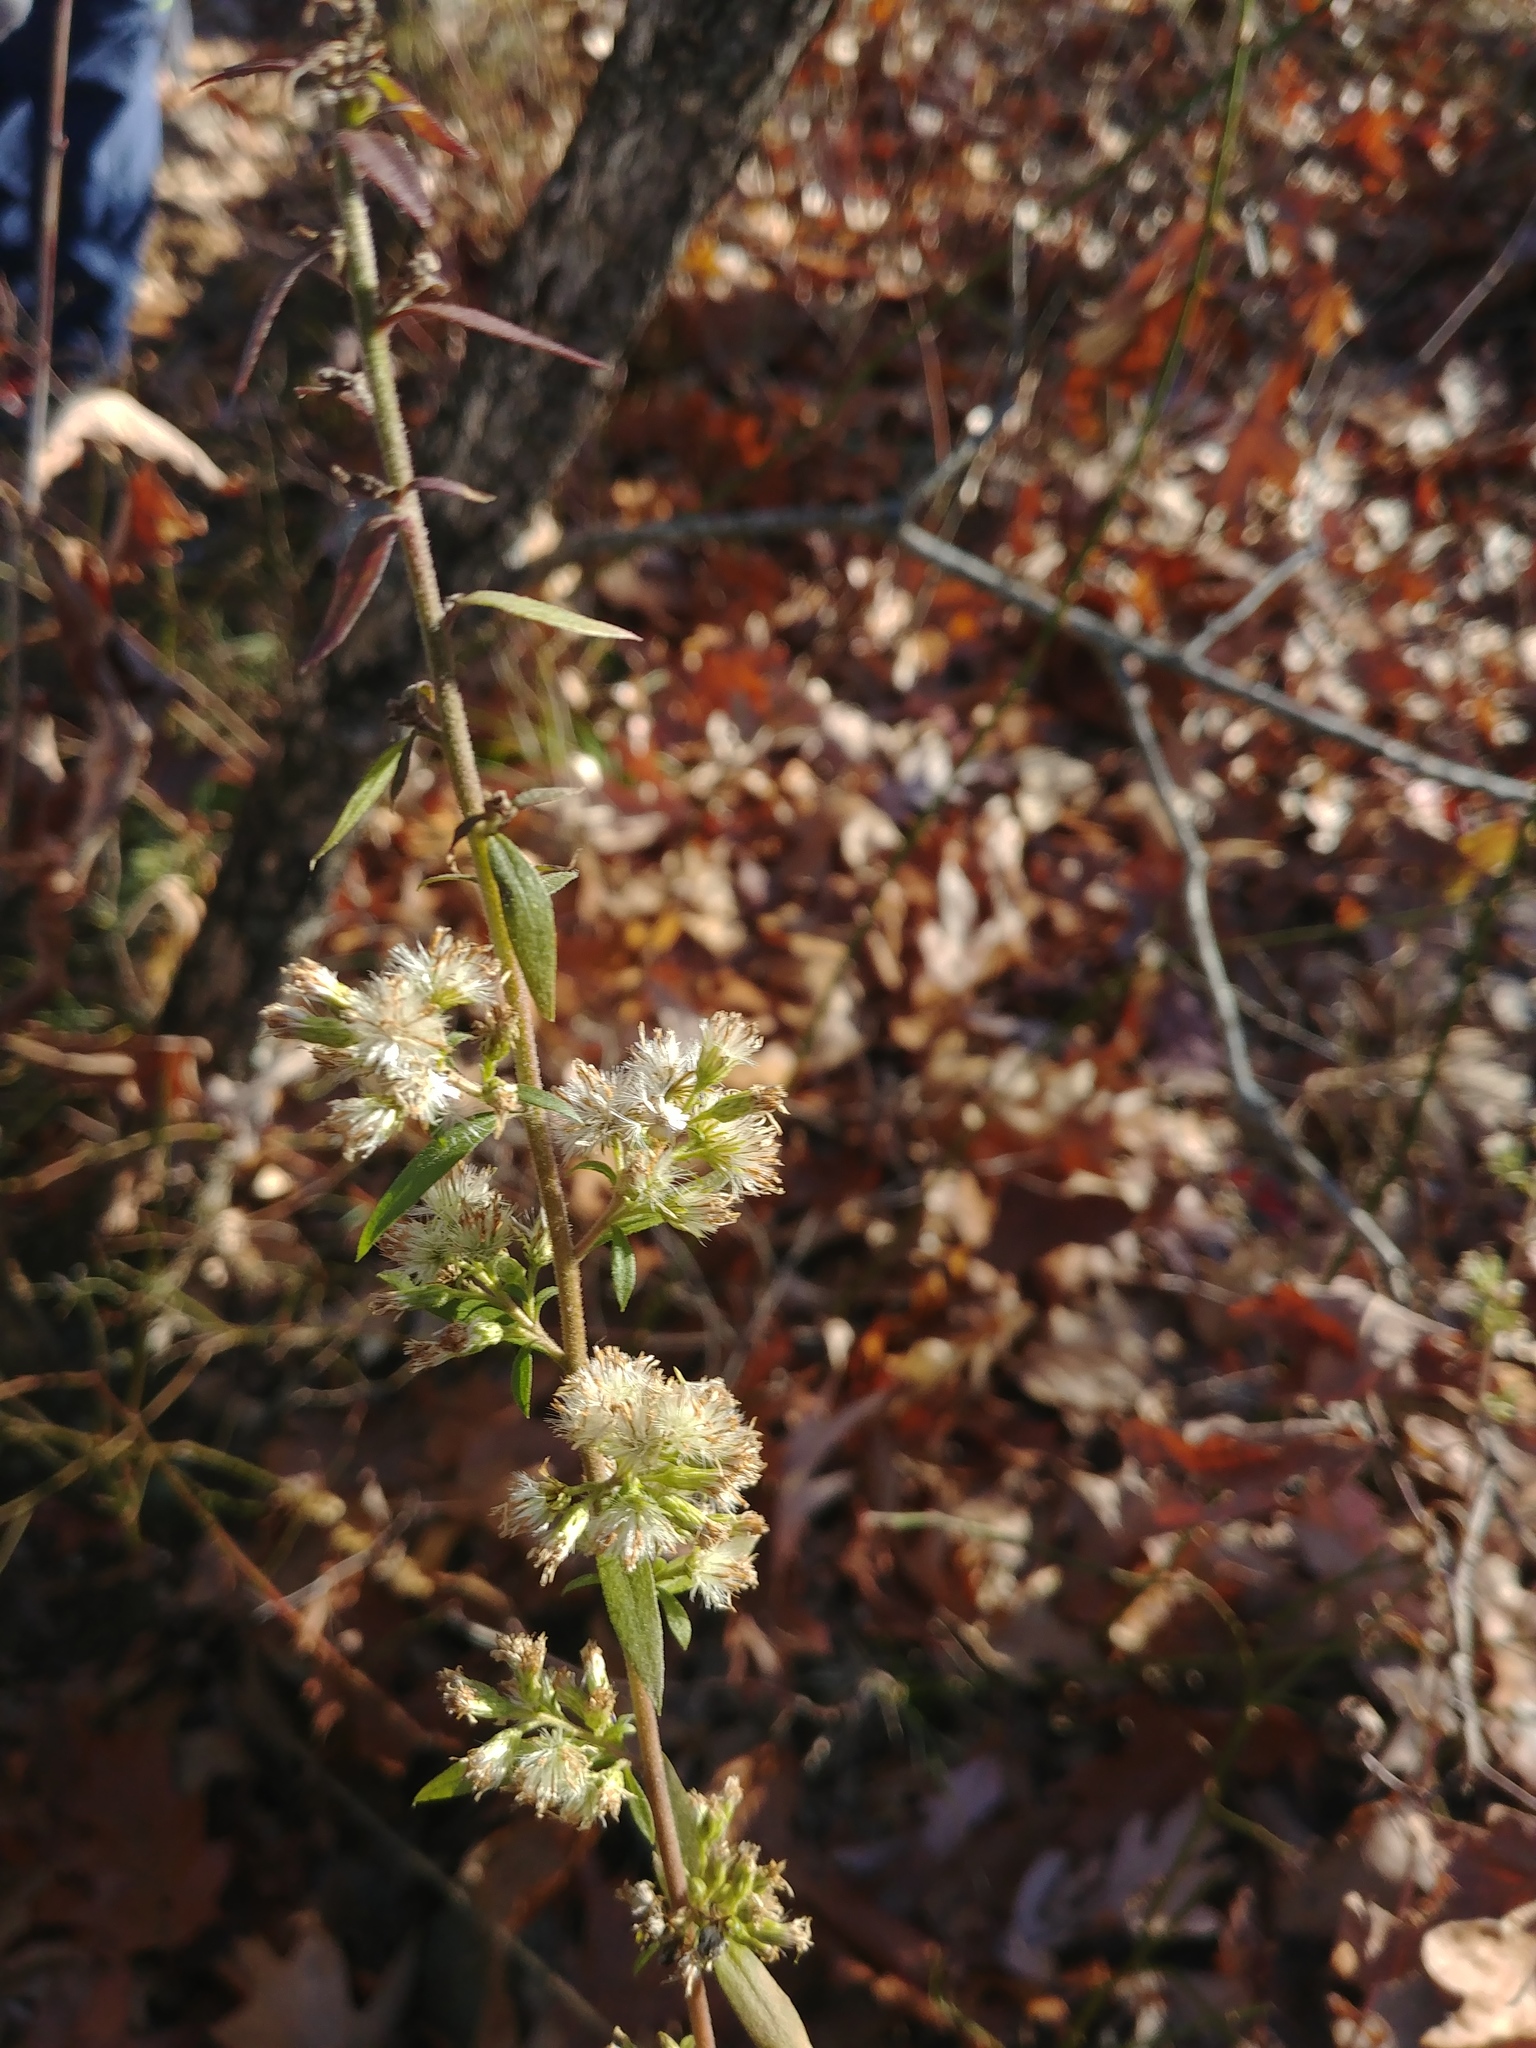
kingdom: Plantae
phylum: Tracheophyta
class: Magnoliopsida
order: Asterales
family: Asteraceae
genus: Solidago
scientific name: Solidago bicolor
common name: Silverrod
